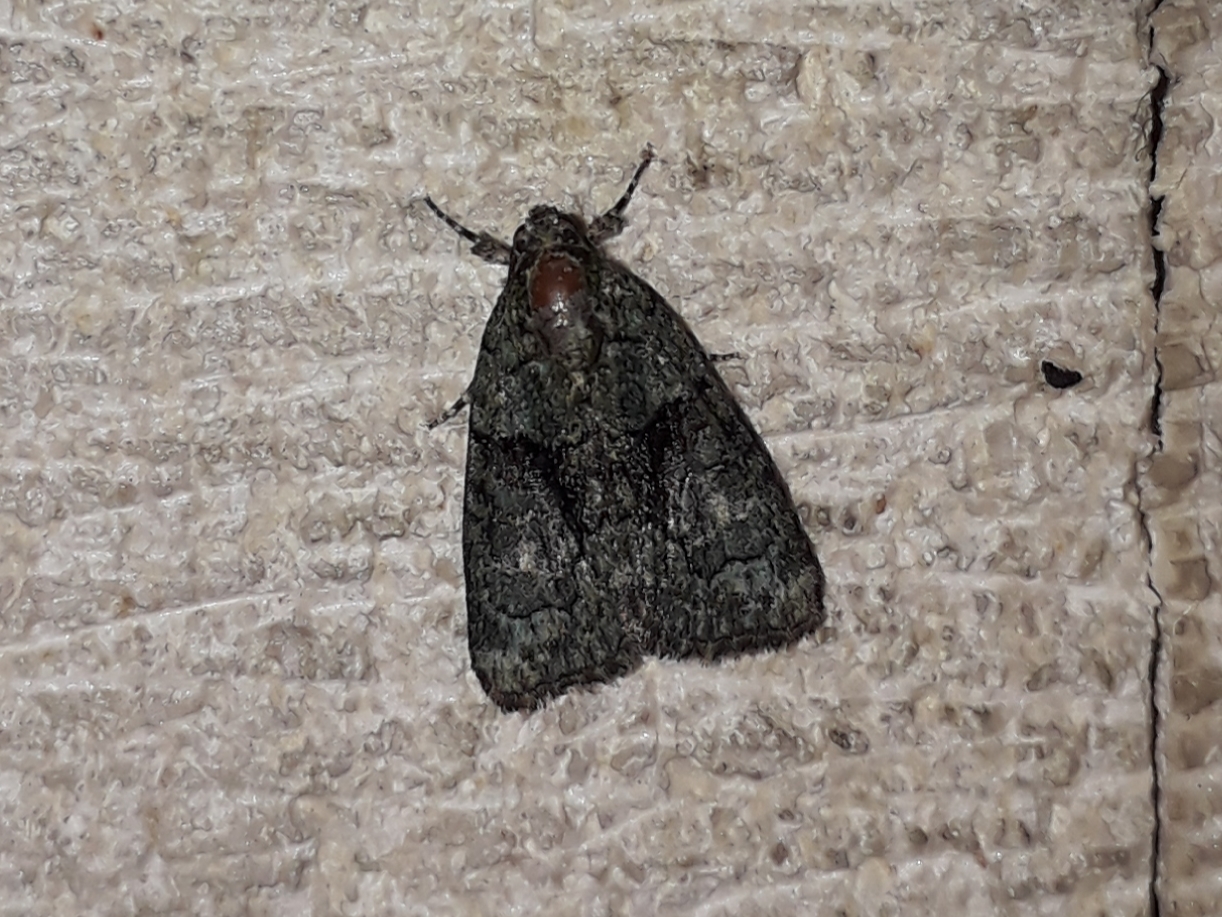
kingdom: Animalia
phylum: Arthropoda
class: Insecta
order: Lepidoptera
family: Noctuidae
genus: Cryphia
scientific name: Cryphia algae
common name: Tree-lichen beauty
